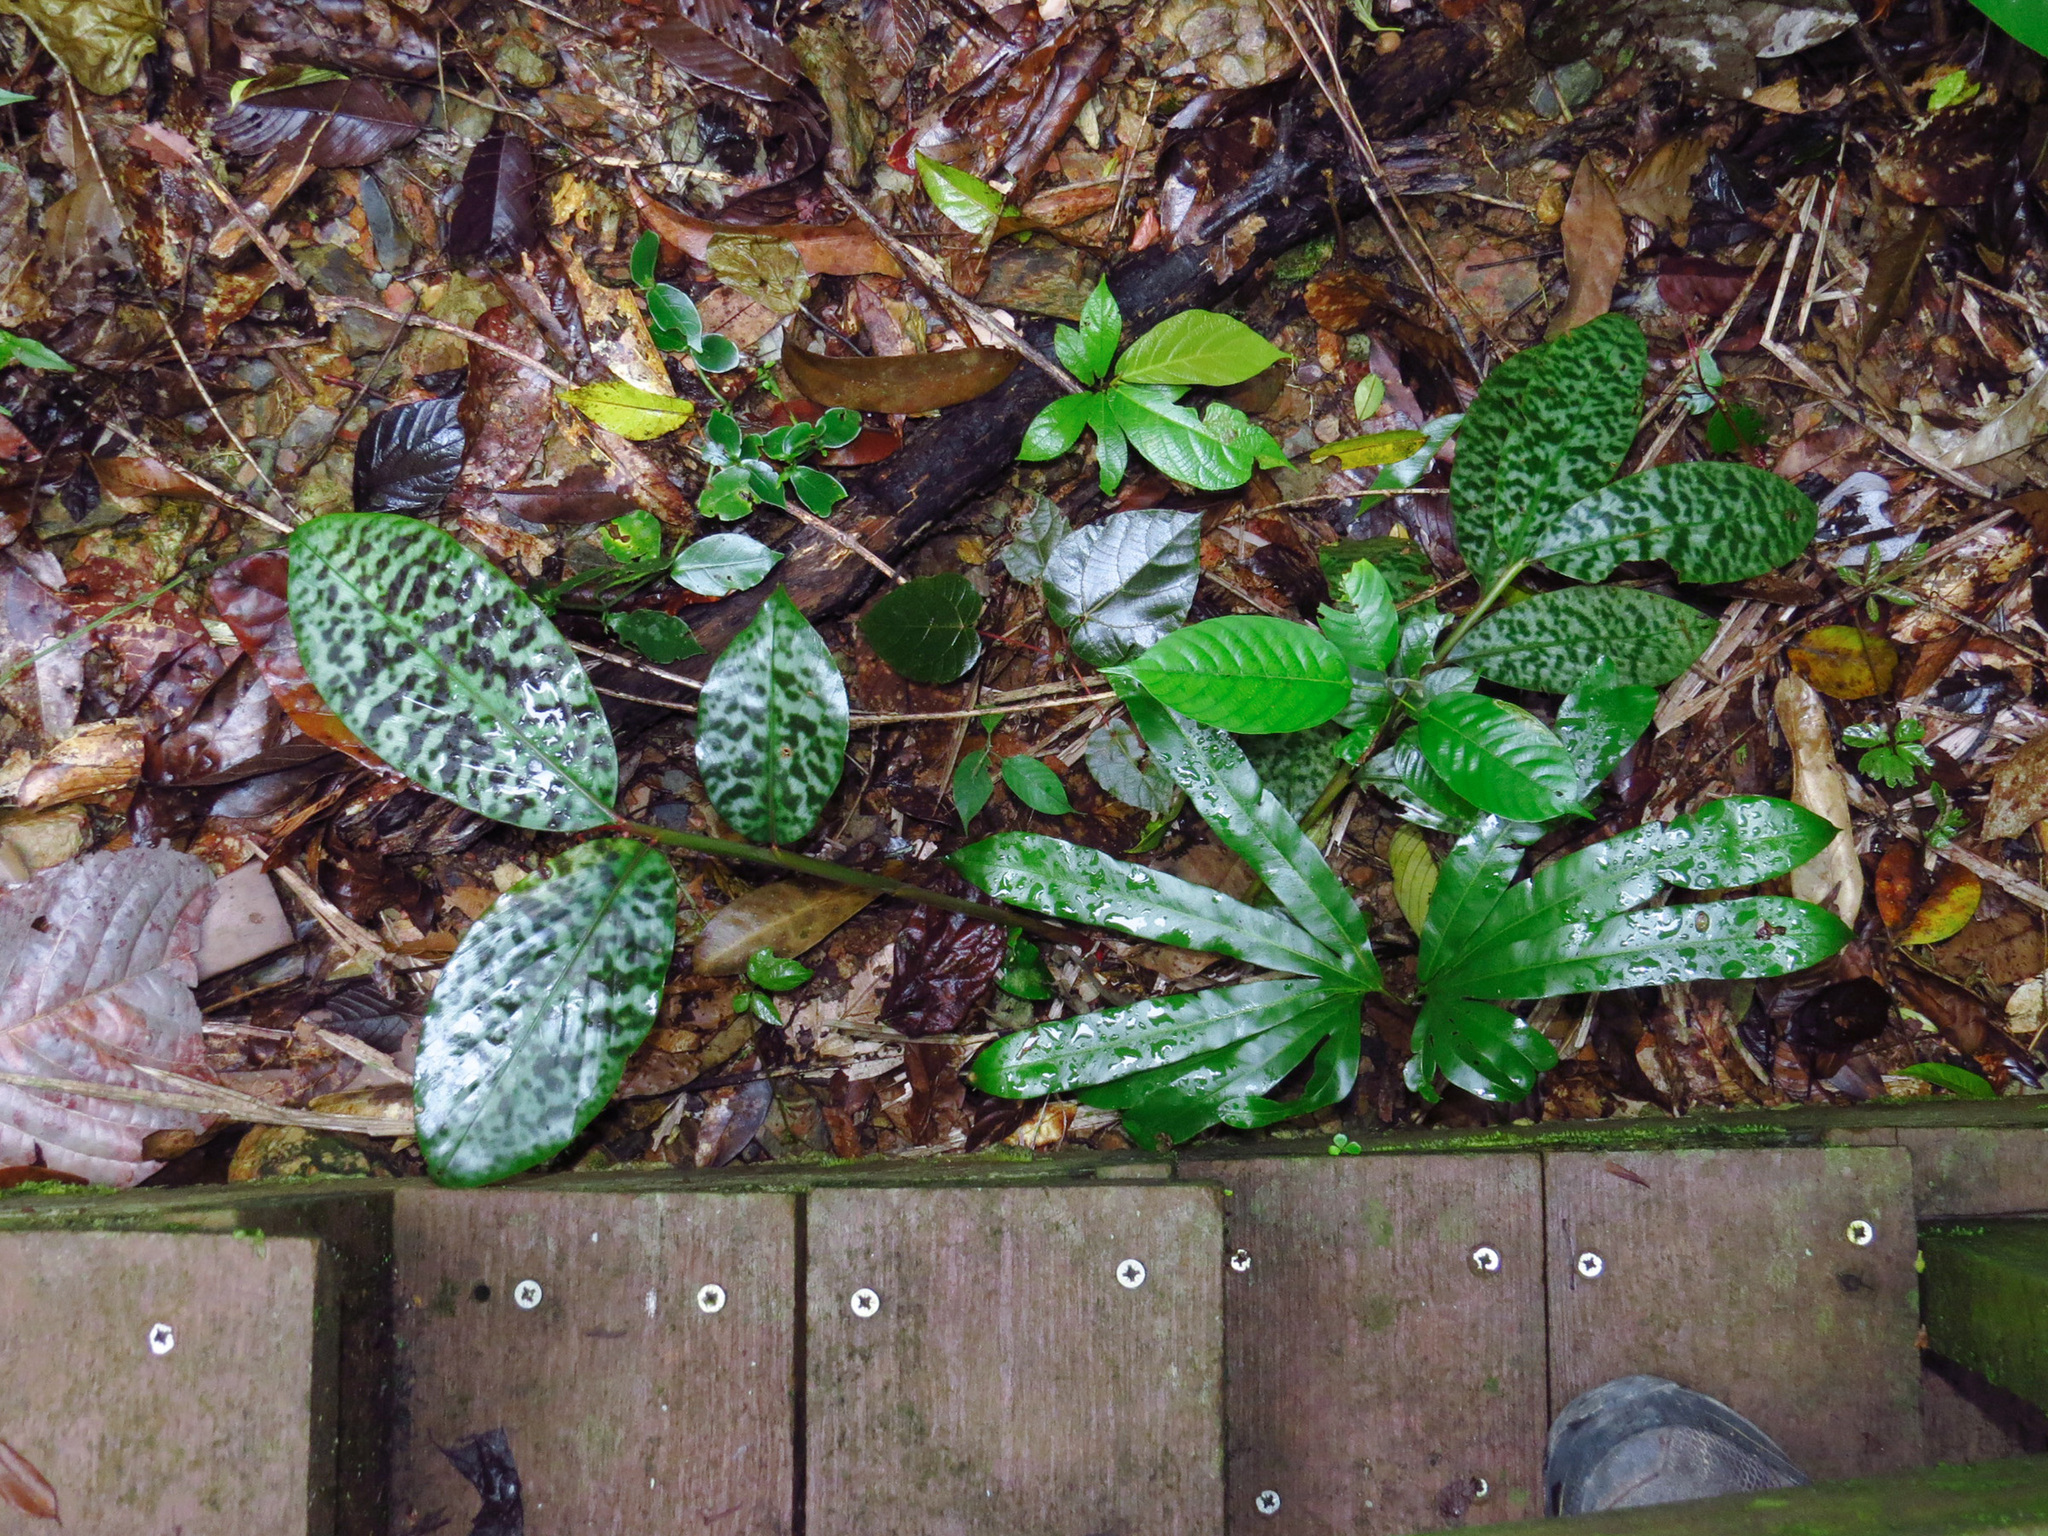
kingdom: Plantae
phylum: Tracheophyta
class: Liliopsida
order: Zingiberales
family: Zingiberaceae
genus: Etlingera
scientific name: Etlingera brevilabrum
